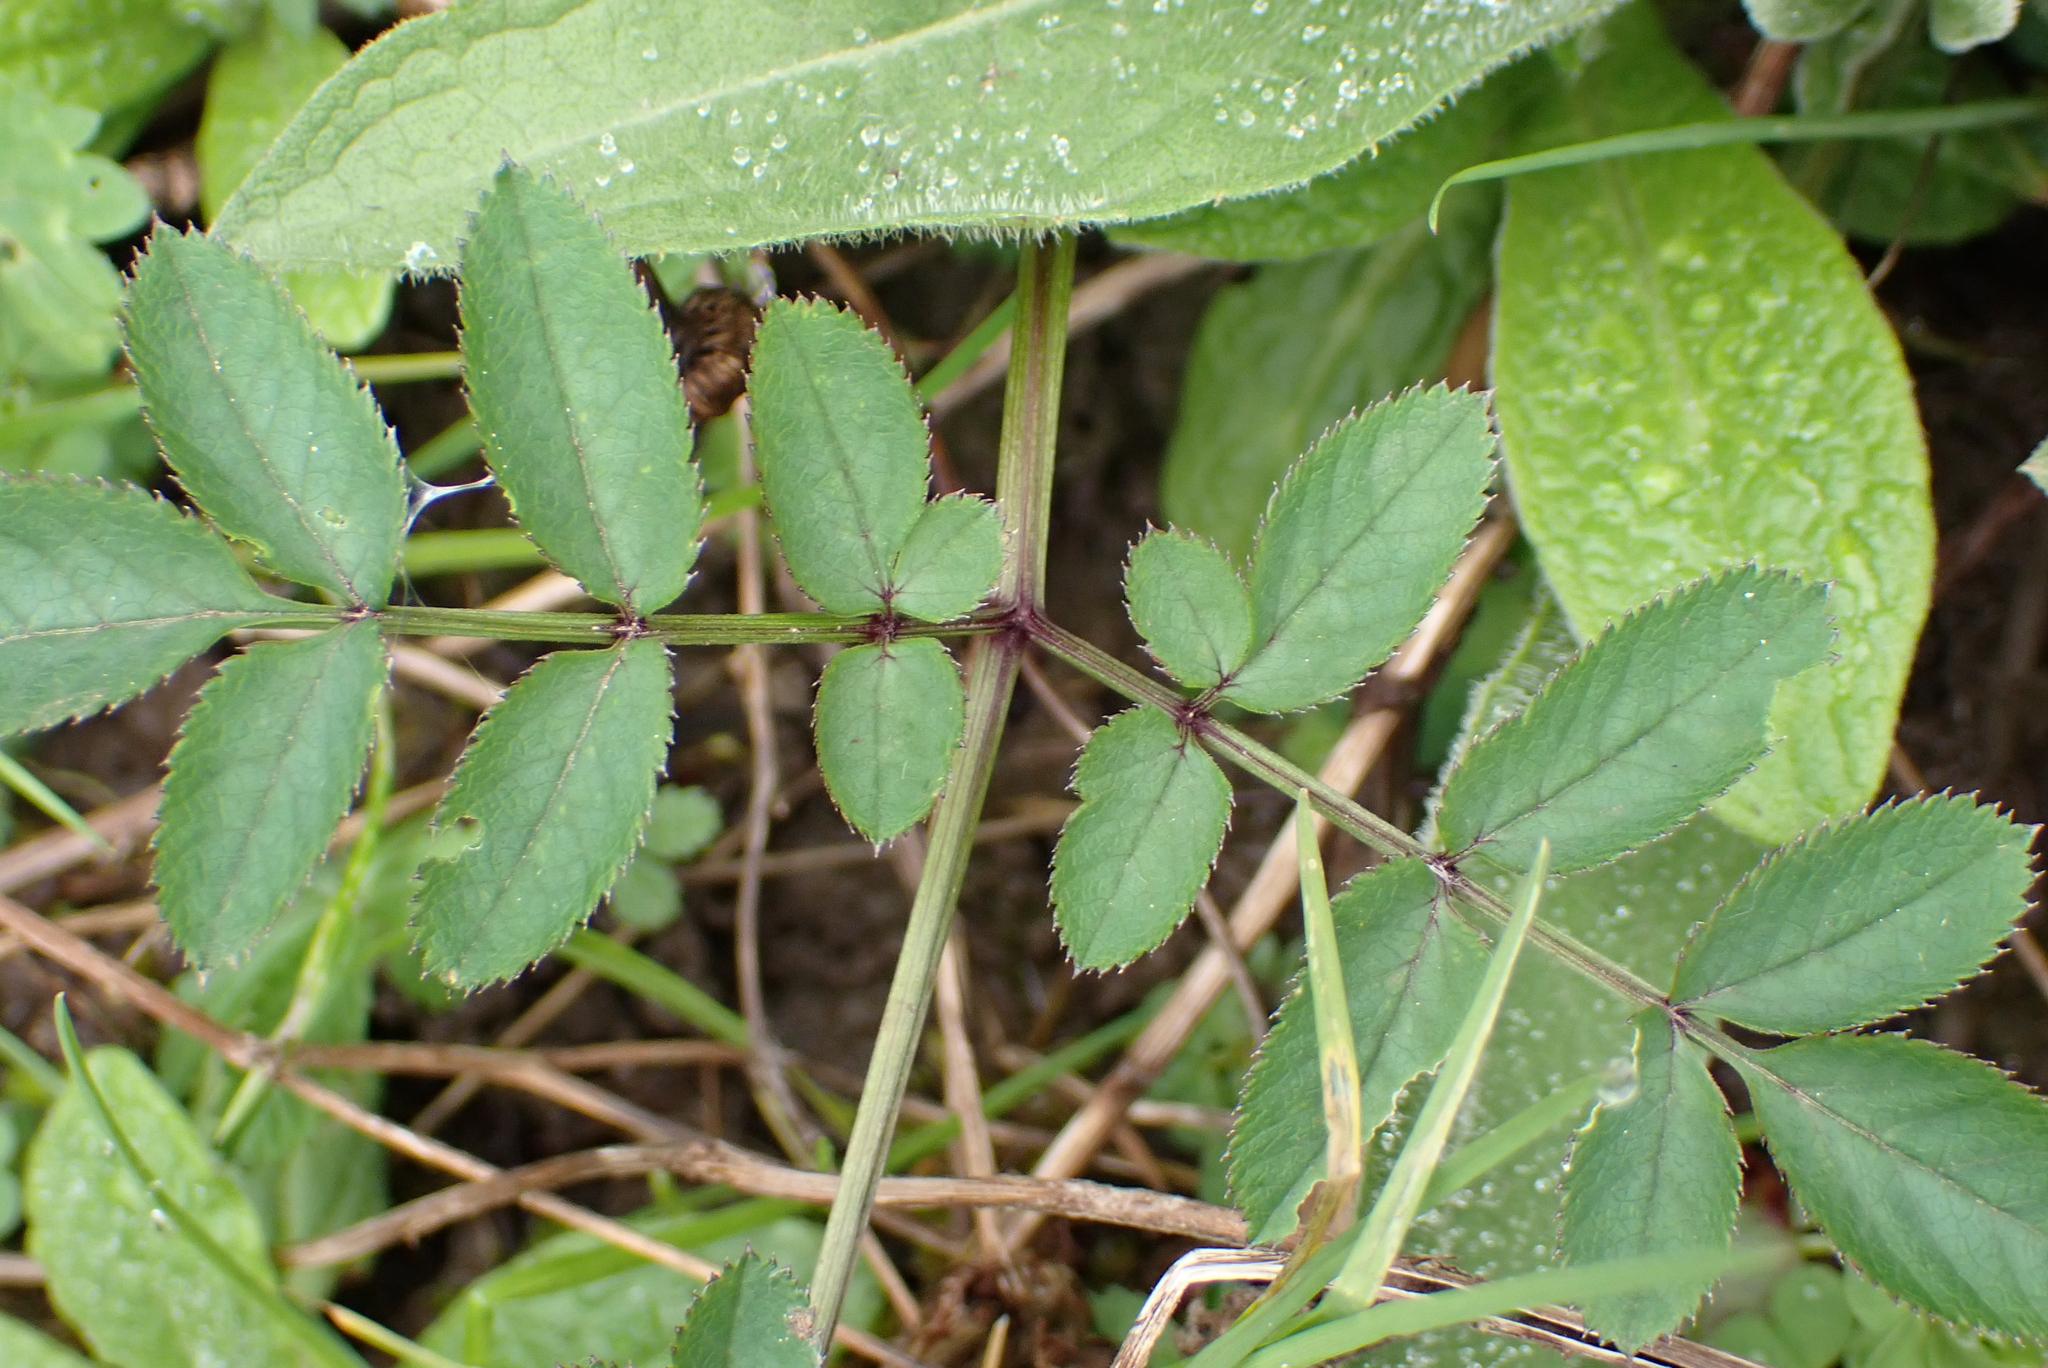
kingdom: Plantae
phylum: Tracheophyta
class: Magnoliopsida
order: Apiales
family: Apiaceae
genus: Angelica
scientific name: Angelica sylvestris
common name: Wild angelica
